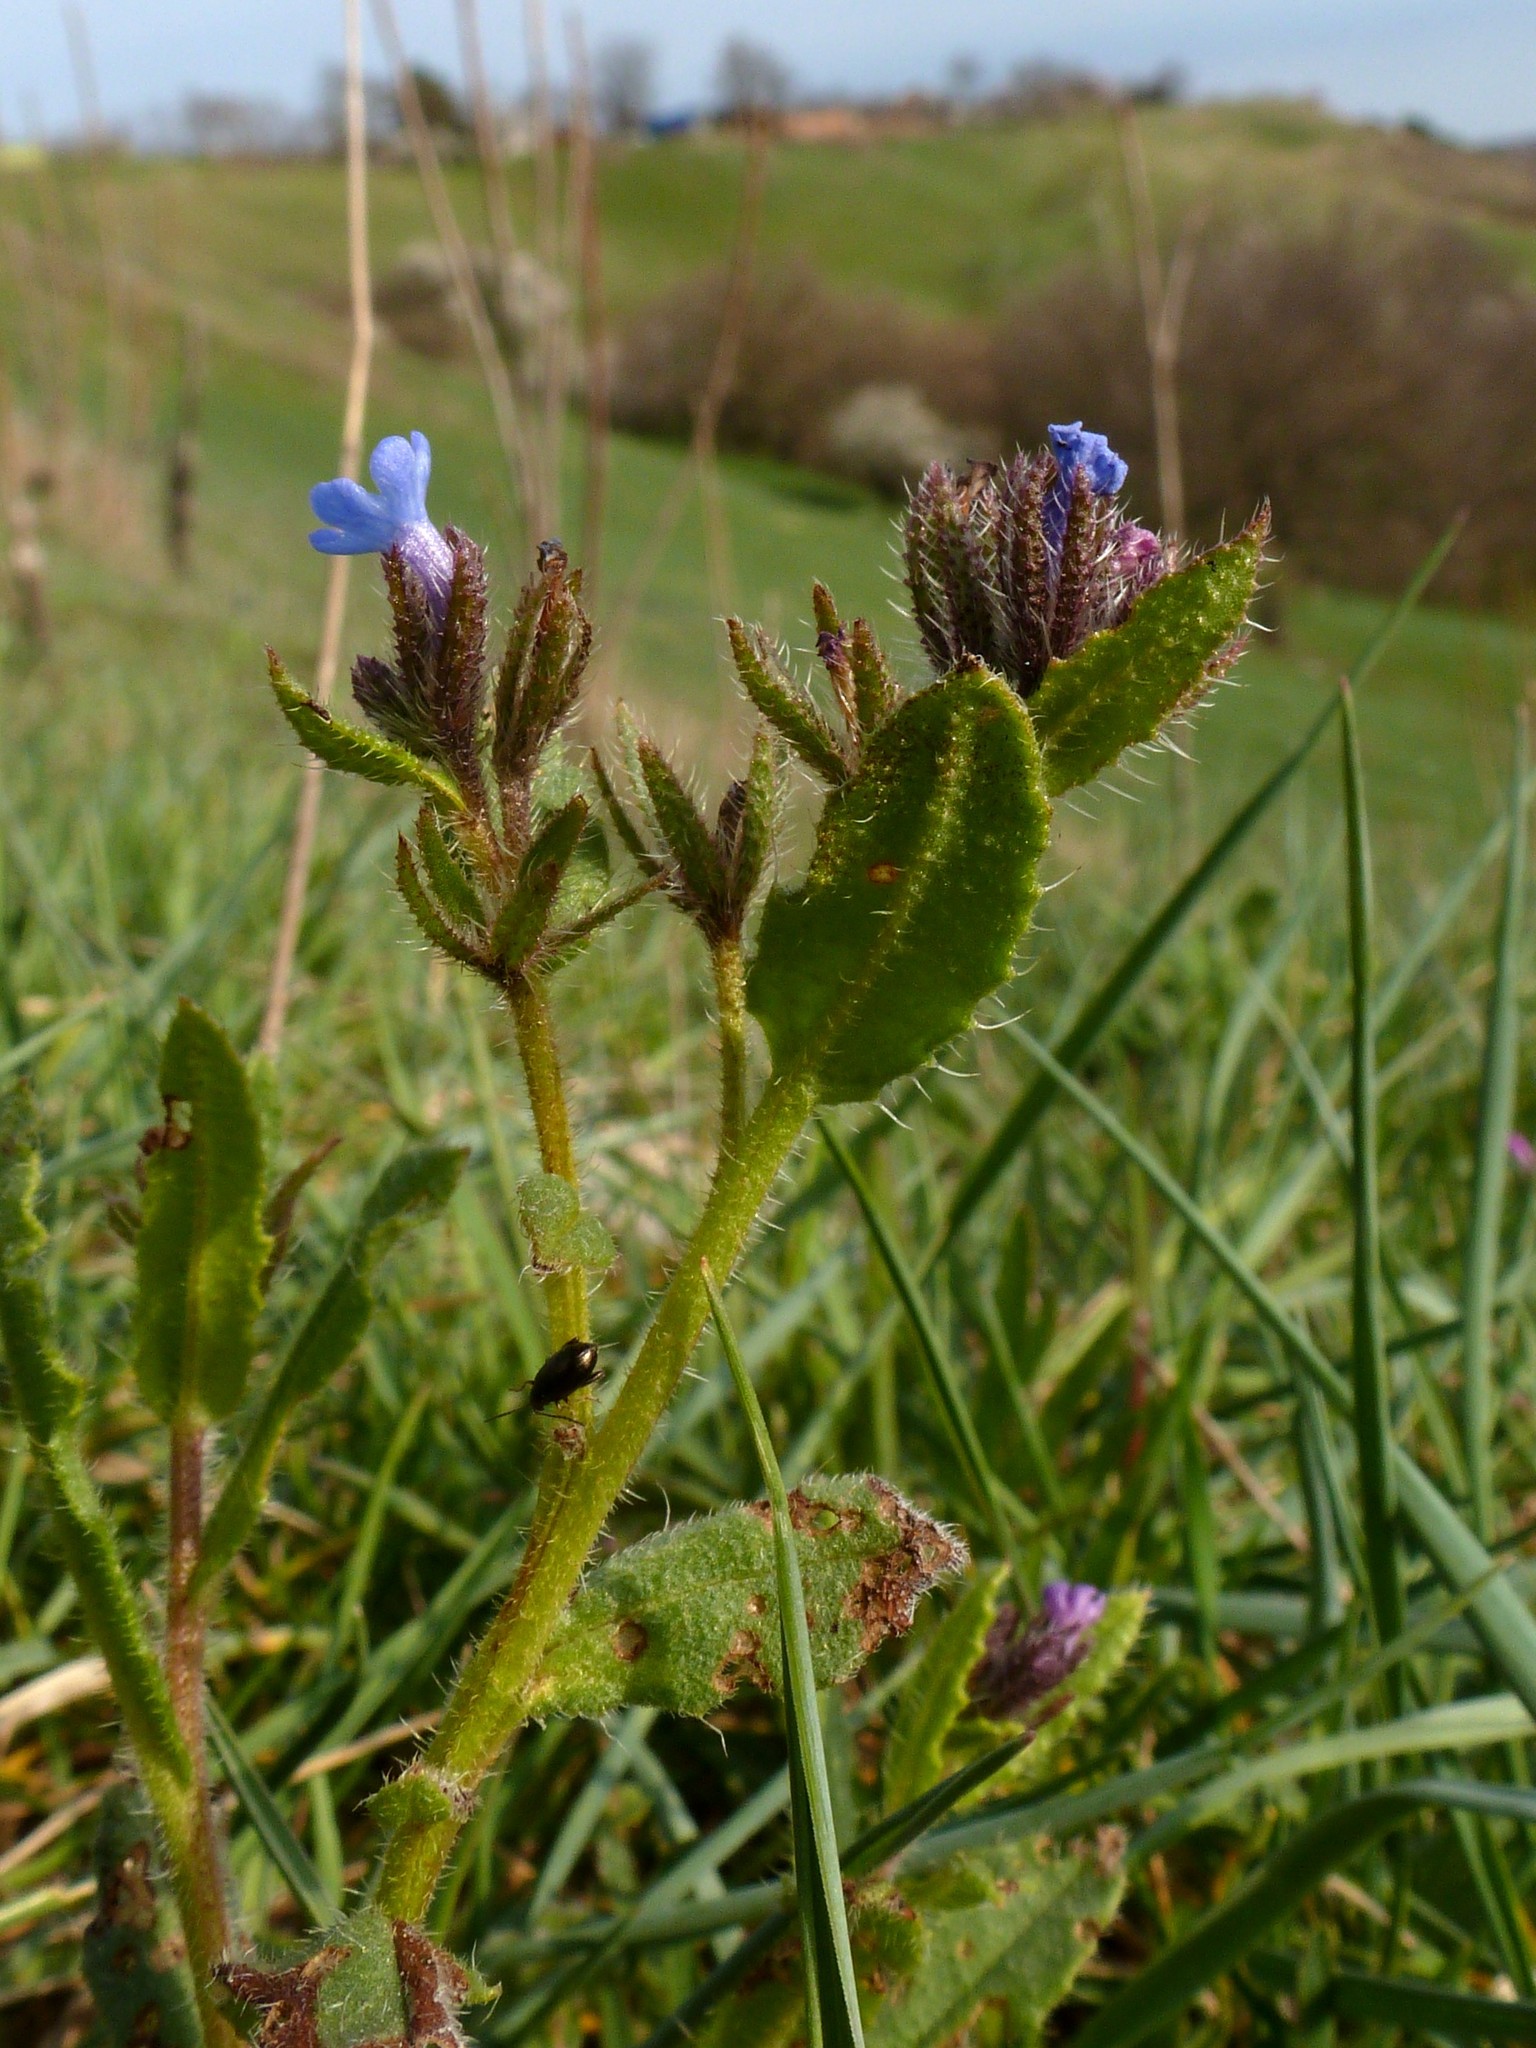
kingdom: Plantae
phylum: Tracheophyta
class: Magnoliopsida
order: Boraginales
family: Boraginaceae
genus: Lycopsis
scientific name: Lycopsis arvensis
